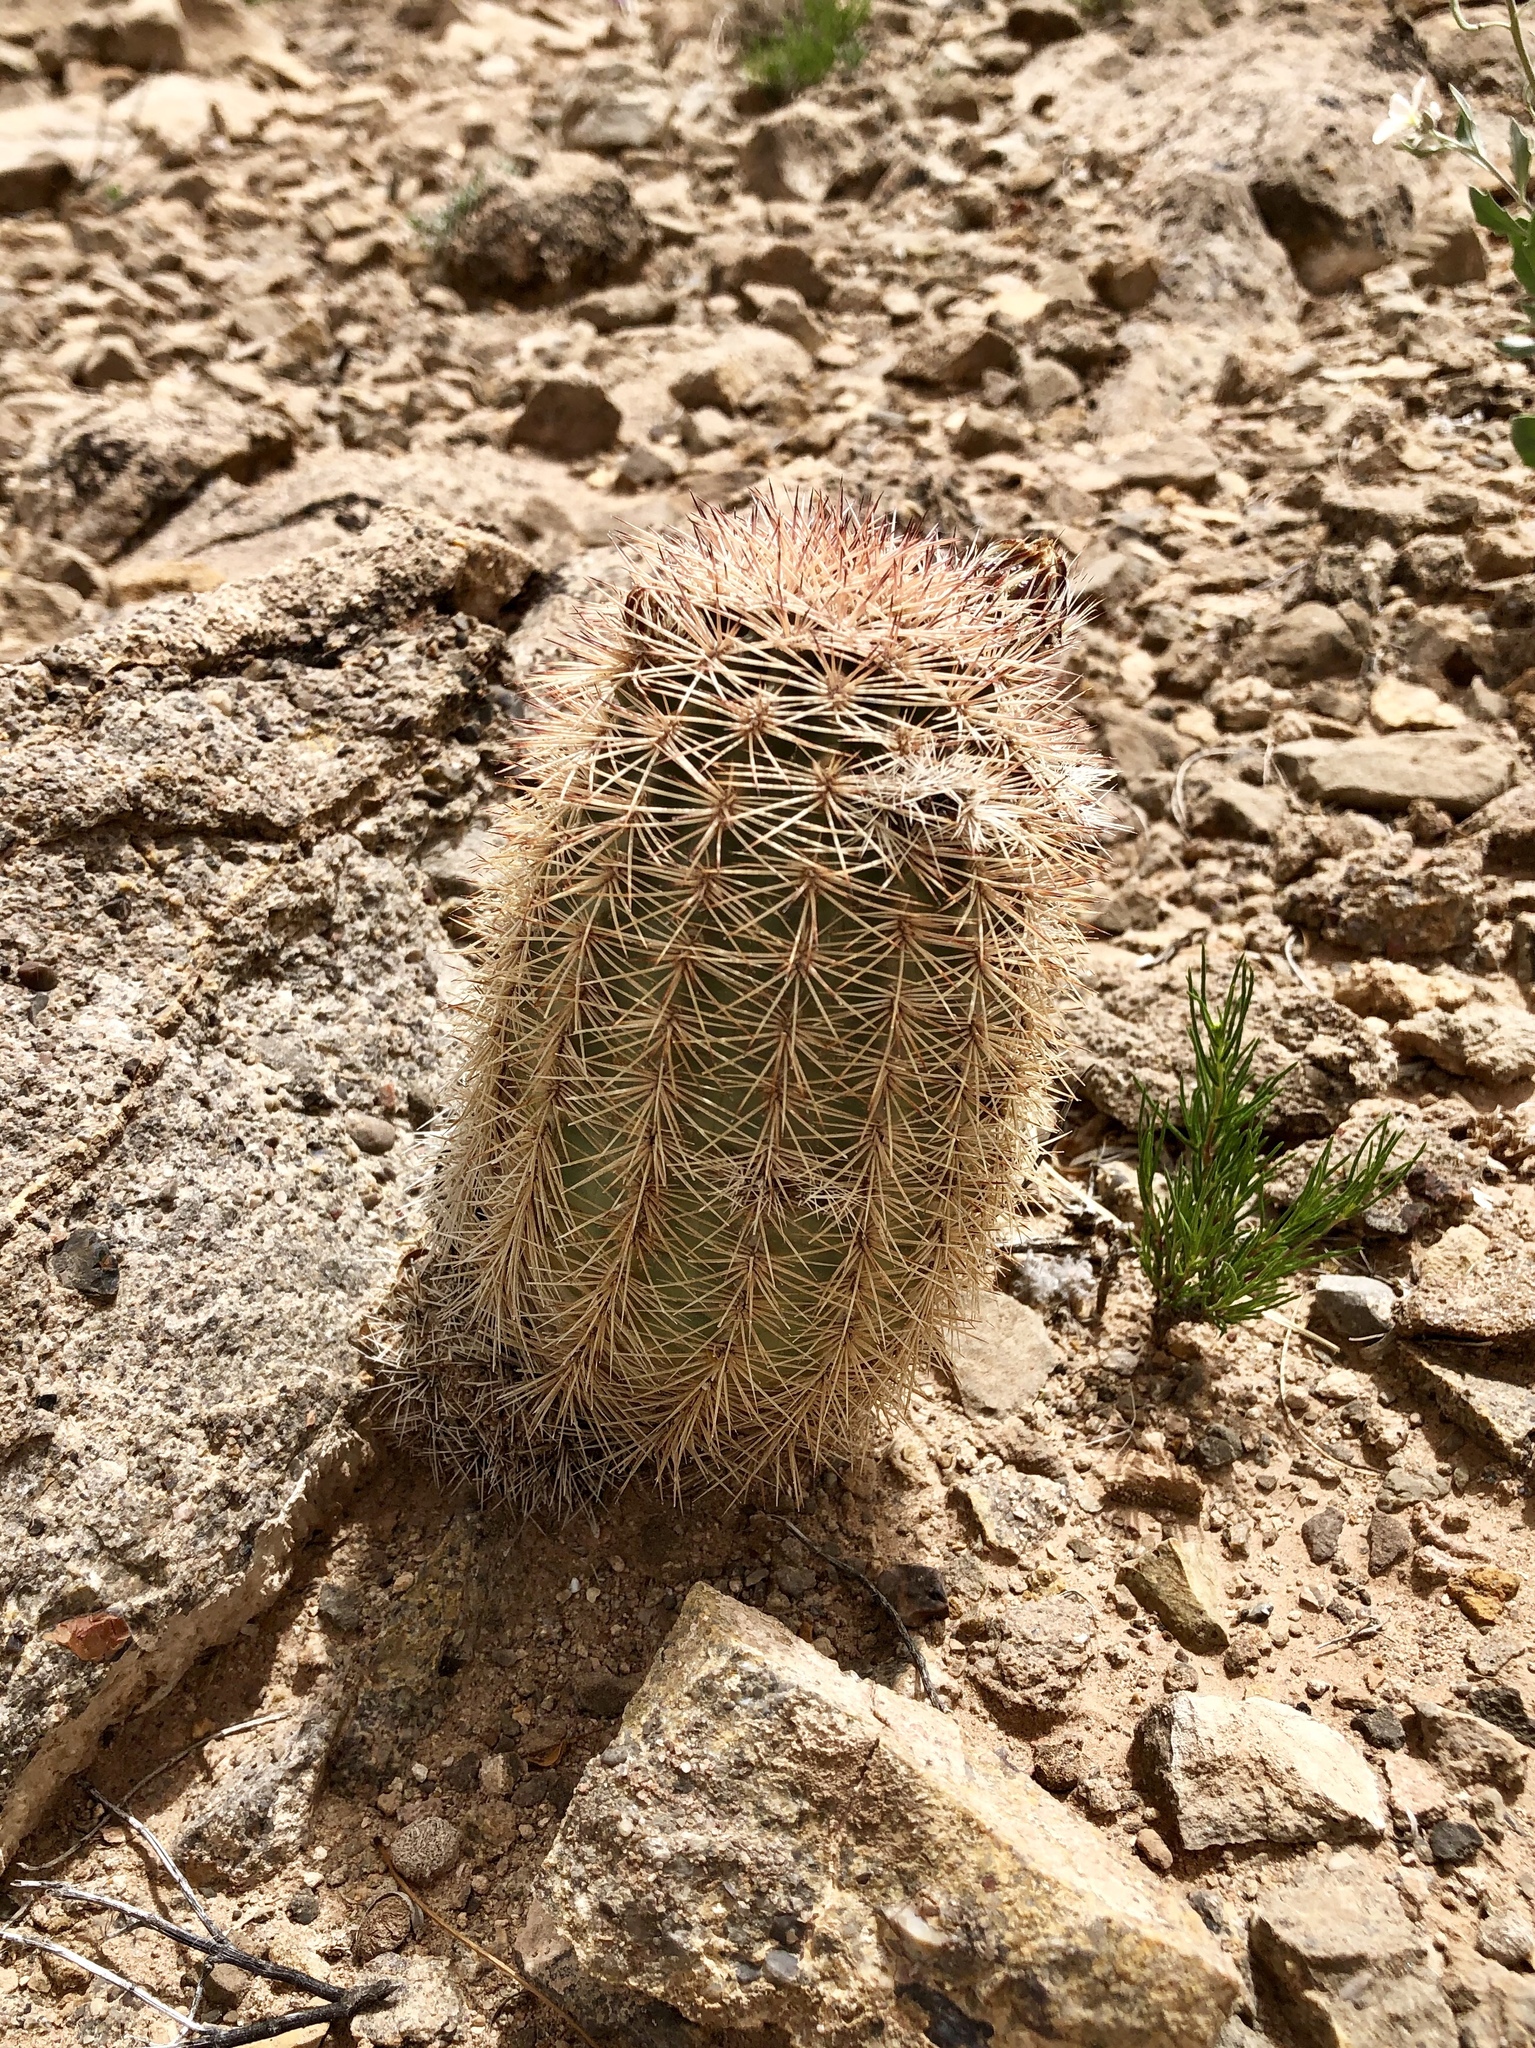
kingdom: Plantae
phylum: Tracheophyta
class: Magnoliopsida
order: Caryophyllales
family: Cactaceae
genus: Echinocereus
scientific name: Echinocereus dasyacanthus
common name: Spiny hedgehog cactus
